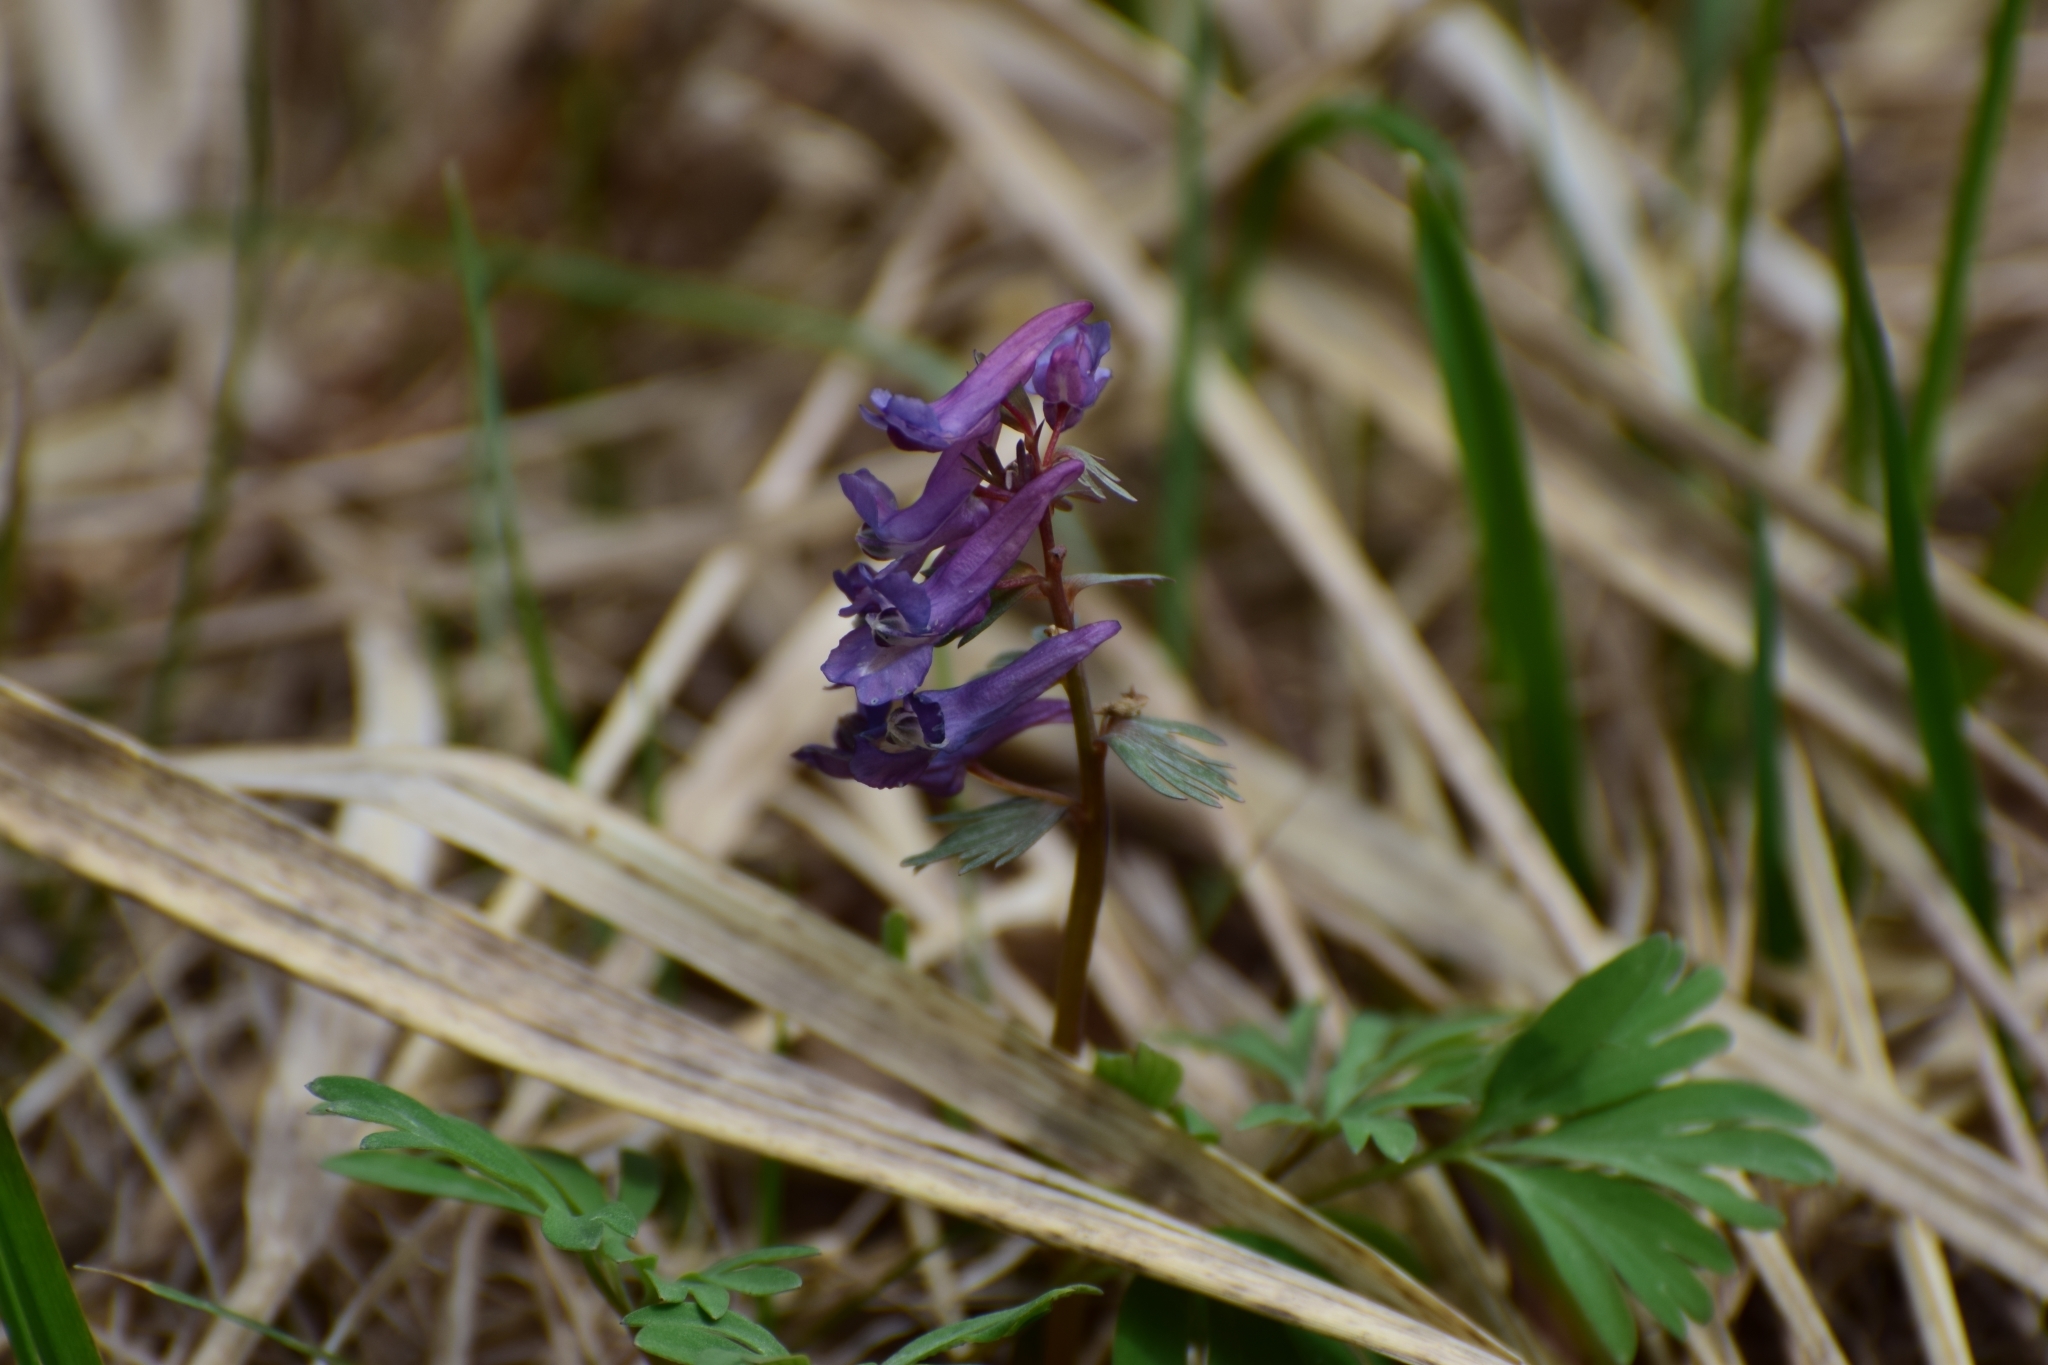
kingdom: Plantae
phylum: Tracheophyta
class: Magnoliopsida
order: Ranunculales
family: Papaveraceae
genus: Corydalis
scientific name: Corydalis solida
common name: Bird-in-a-bush
